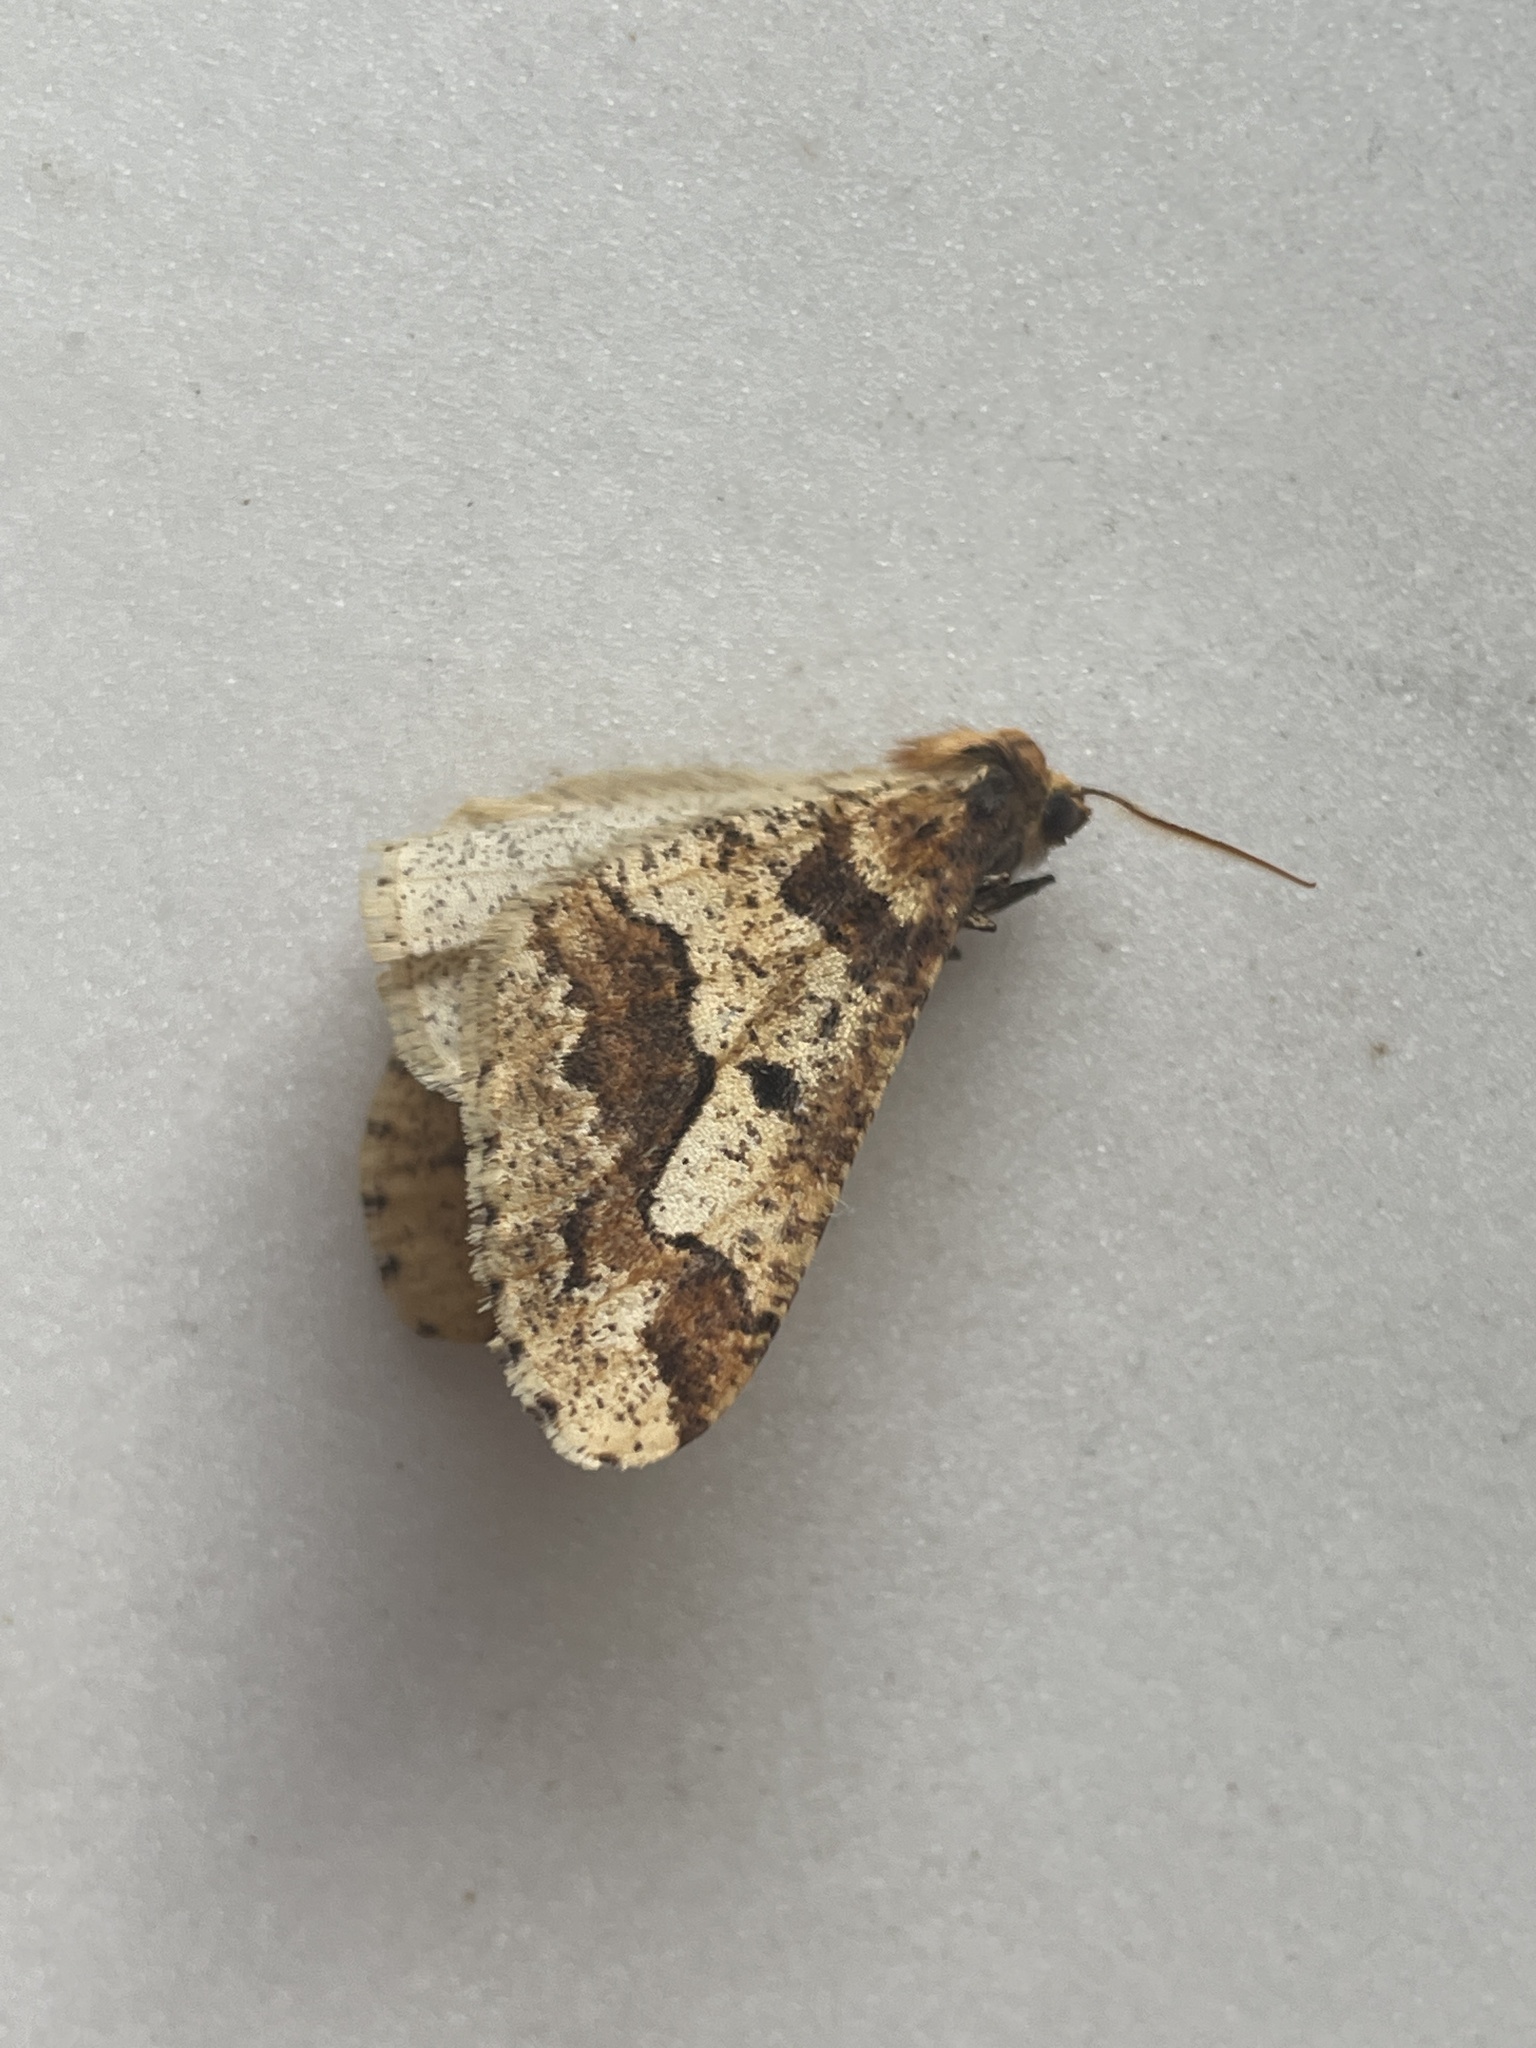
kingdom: Animalia
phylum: Arthropoda
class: Insecta
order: Lepidoptera
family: Geometridae
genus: Erannis
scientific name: Erannis defoliaria
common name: Mottled umber
